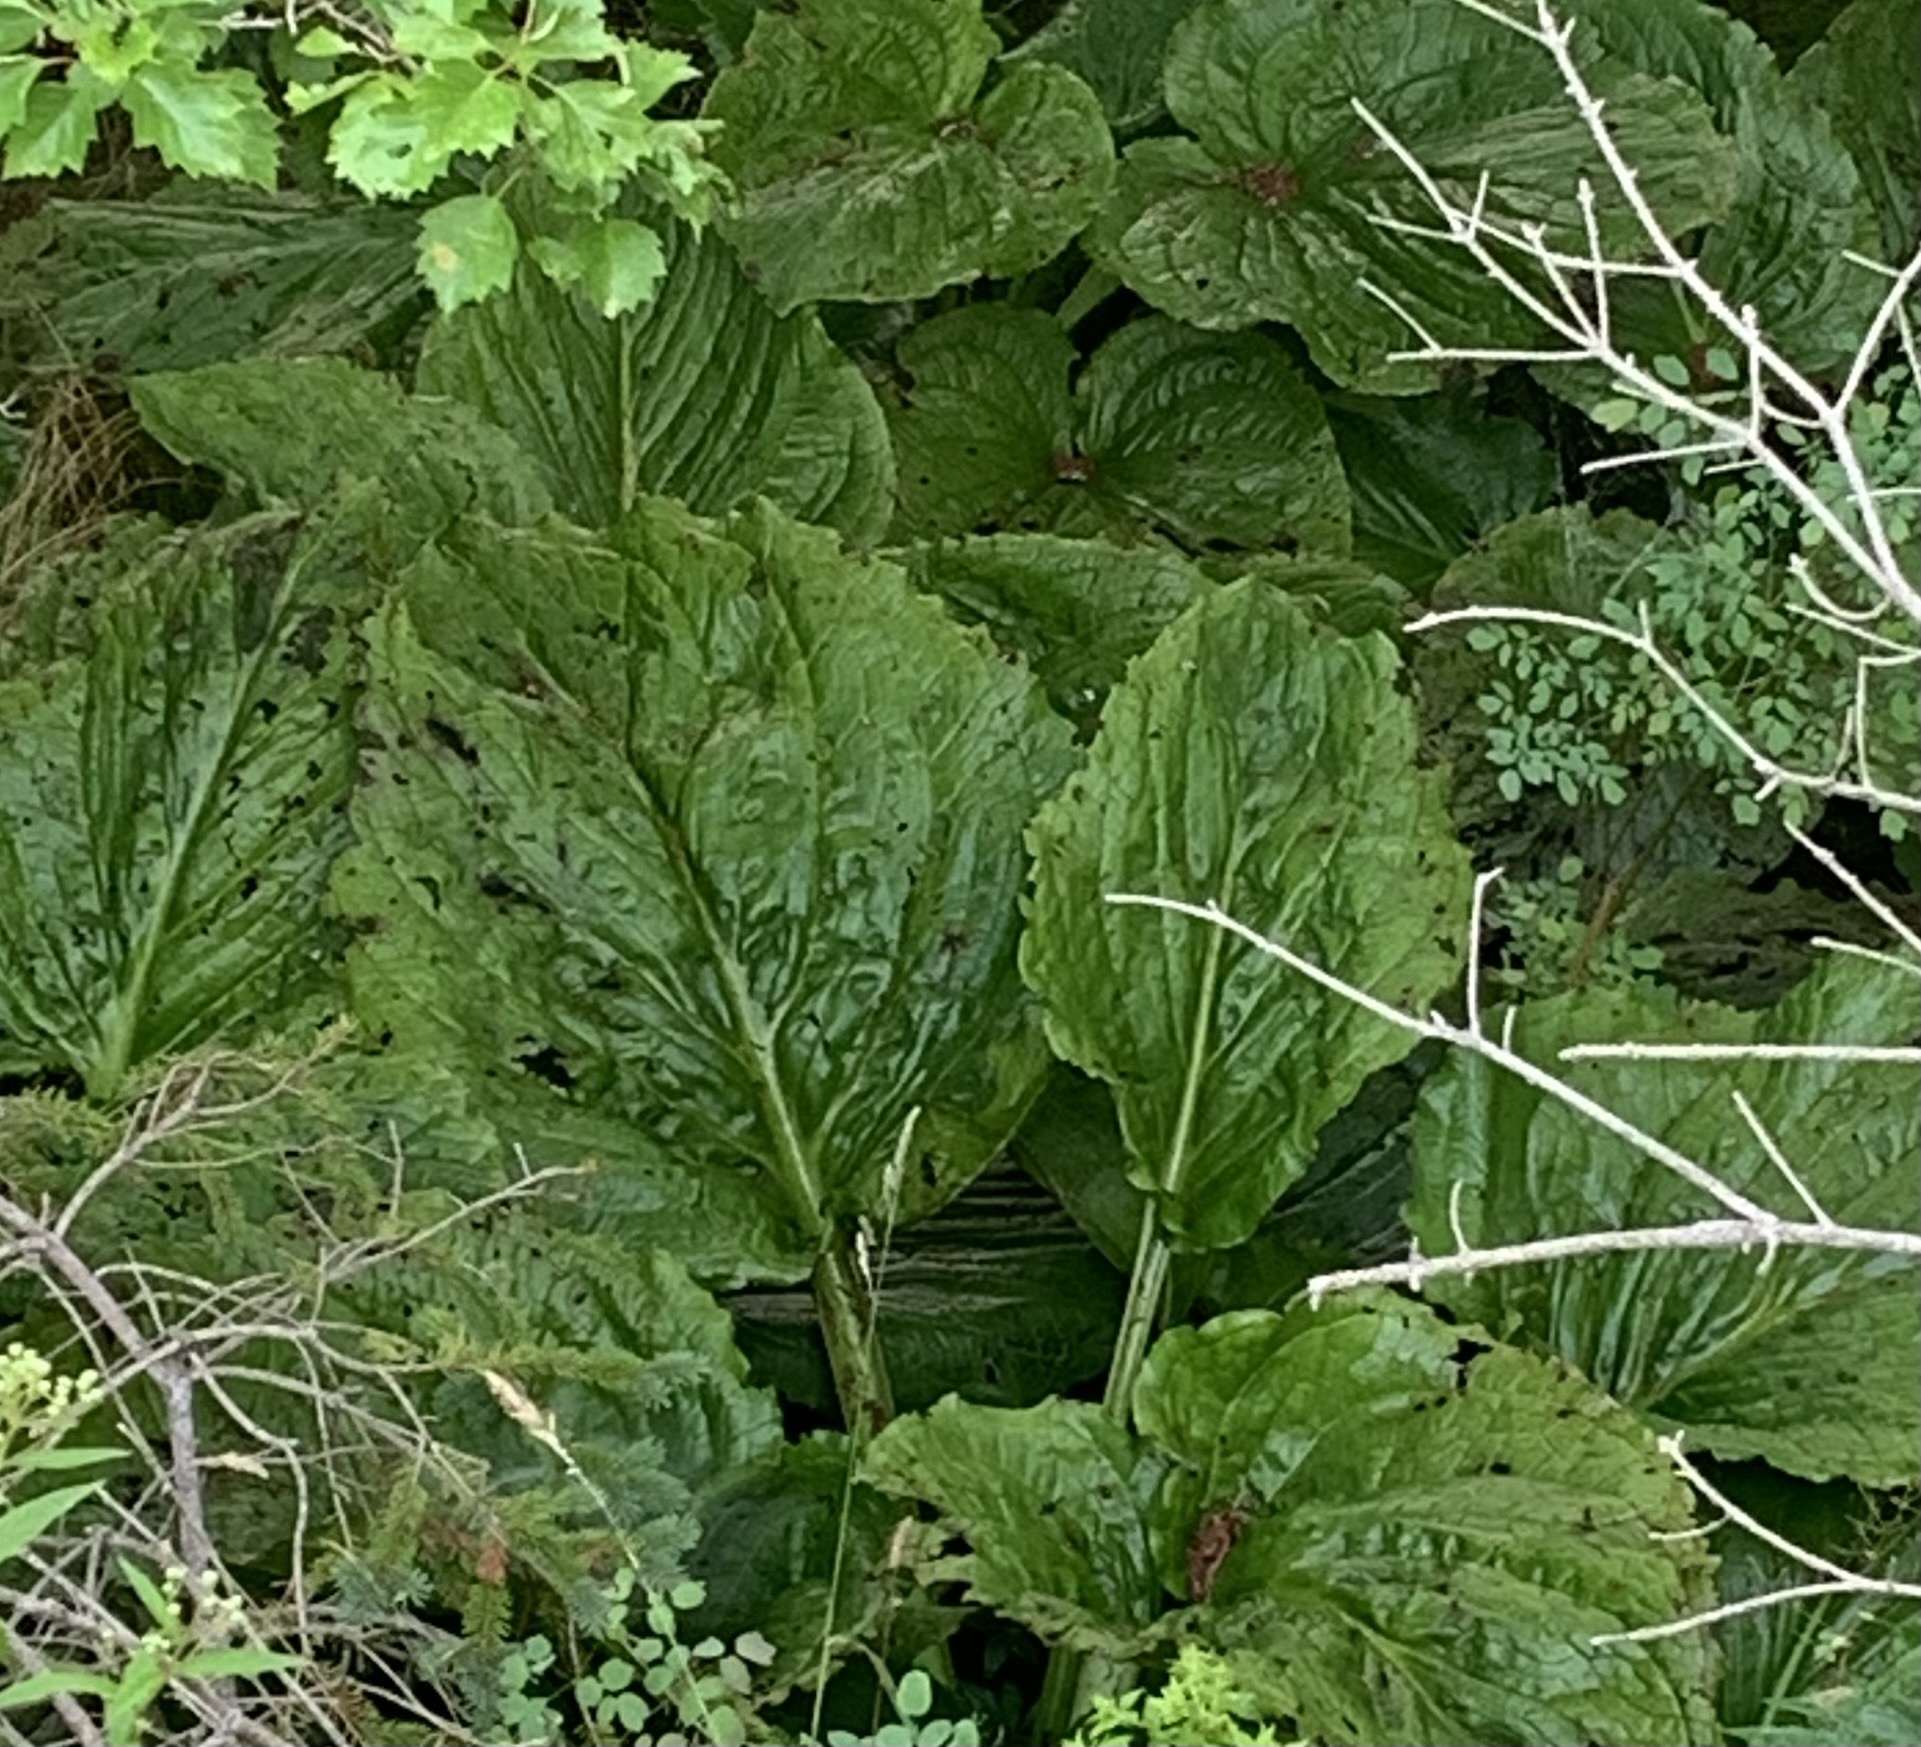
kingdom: Plantae
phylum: Tracheophyta
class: Liliopsida
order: Alismatales
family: Araceae
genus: Symplocarpus
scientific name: Symplocarpus foetidus
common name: Eastern skunk cabbage
